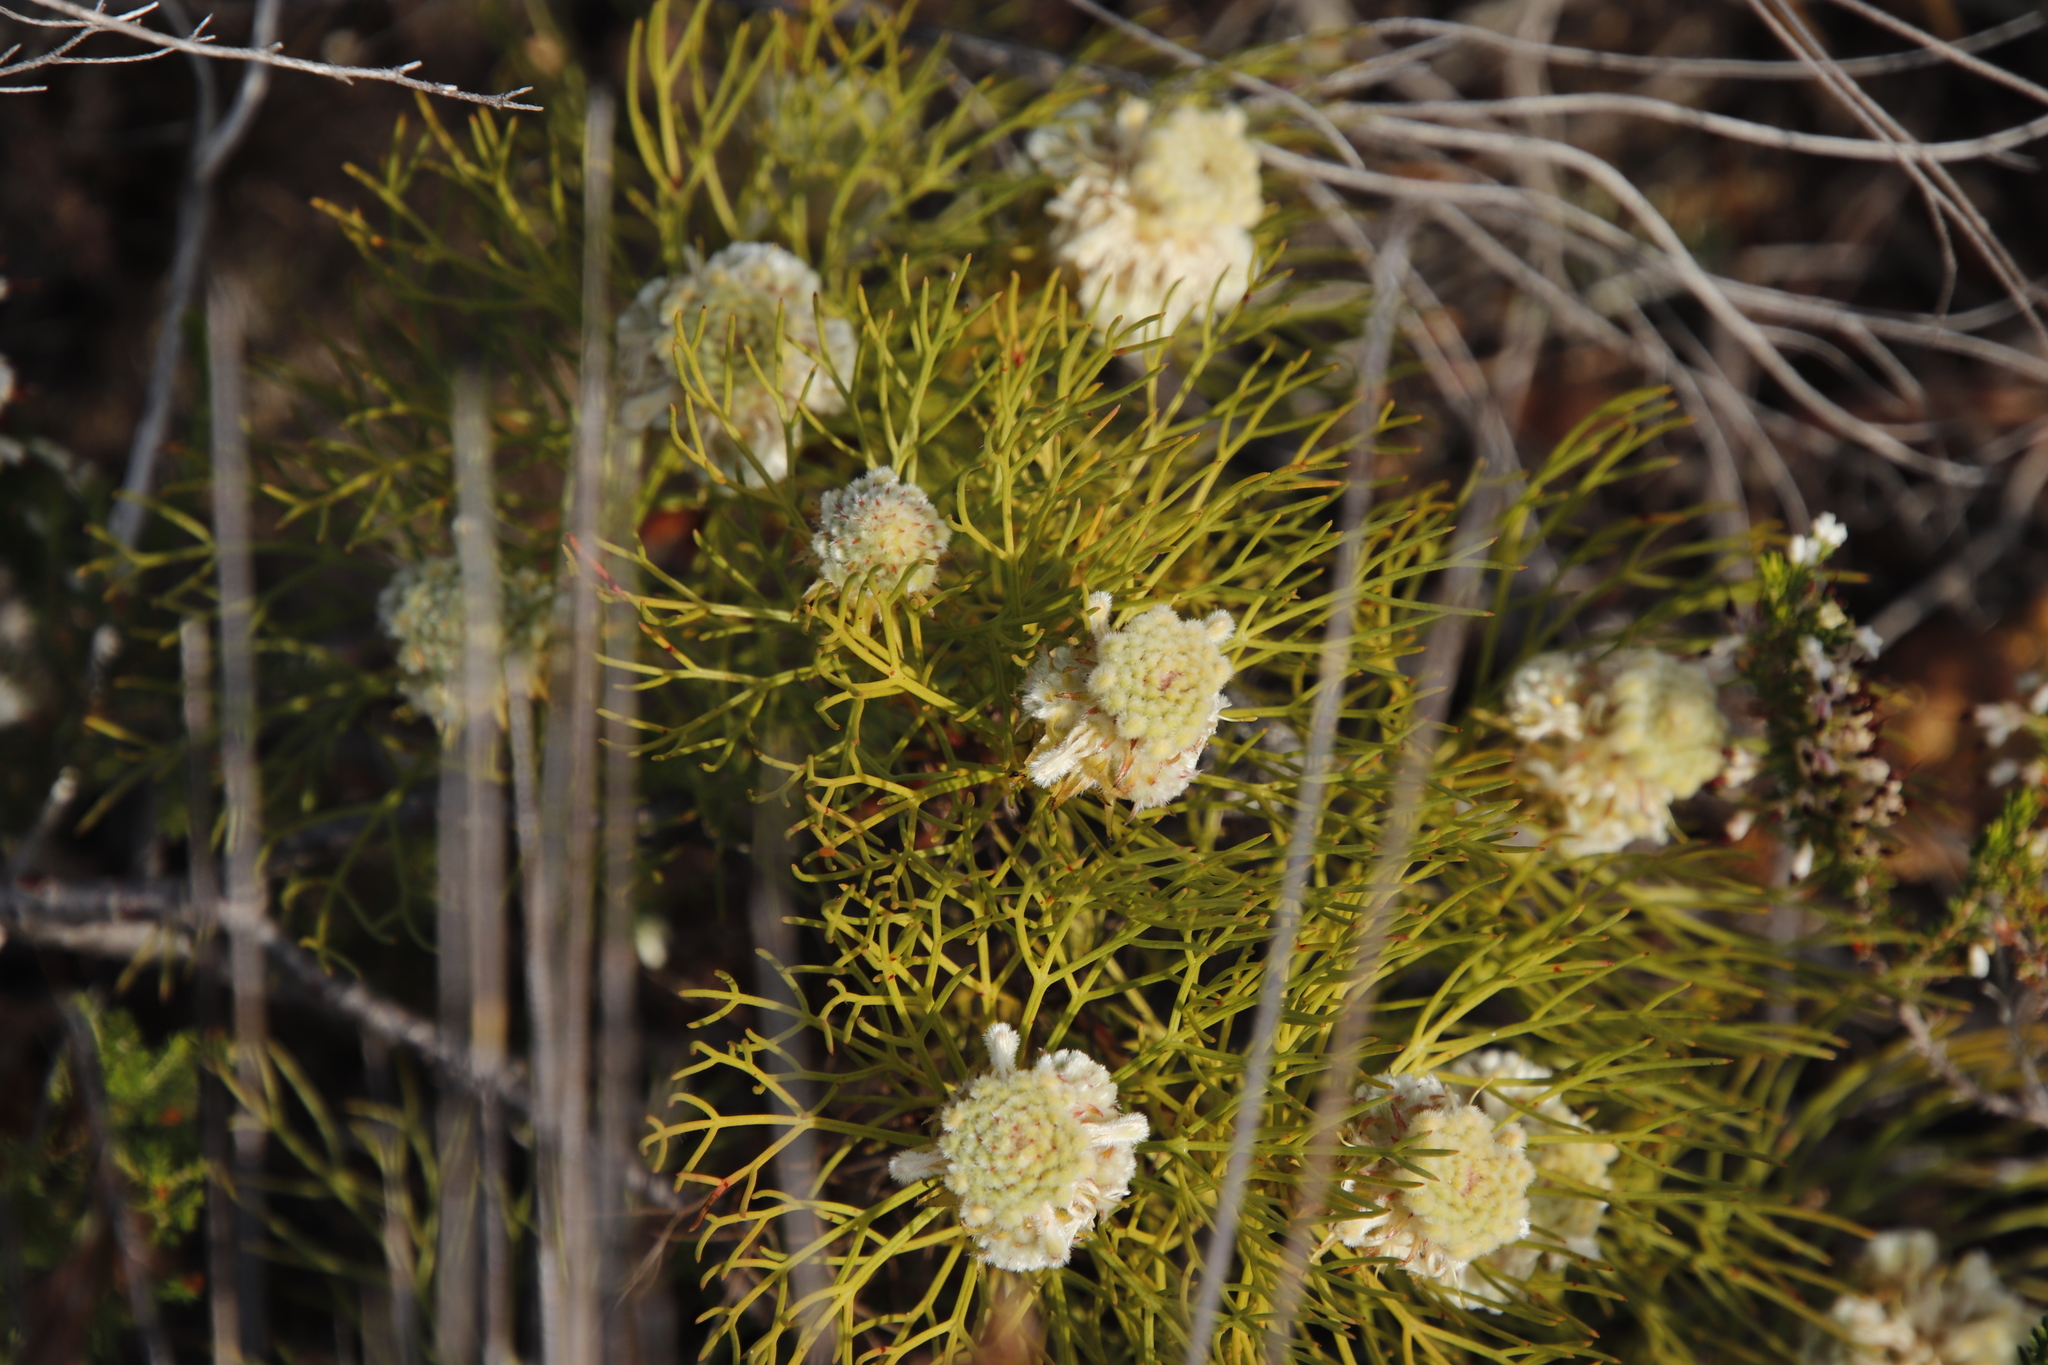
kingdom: Plantae
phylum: Tracheophyta
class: Magnoliopsida
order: Proteales
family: Proteaceae
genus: Serruria
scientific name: Serruria glomerata
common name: Cluster spiderhead
